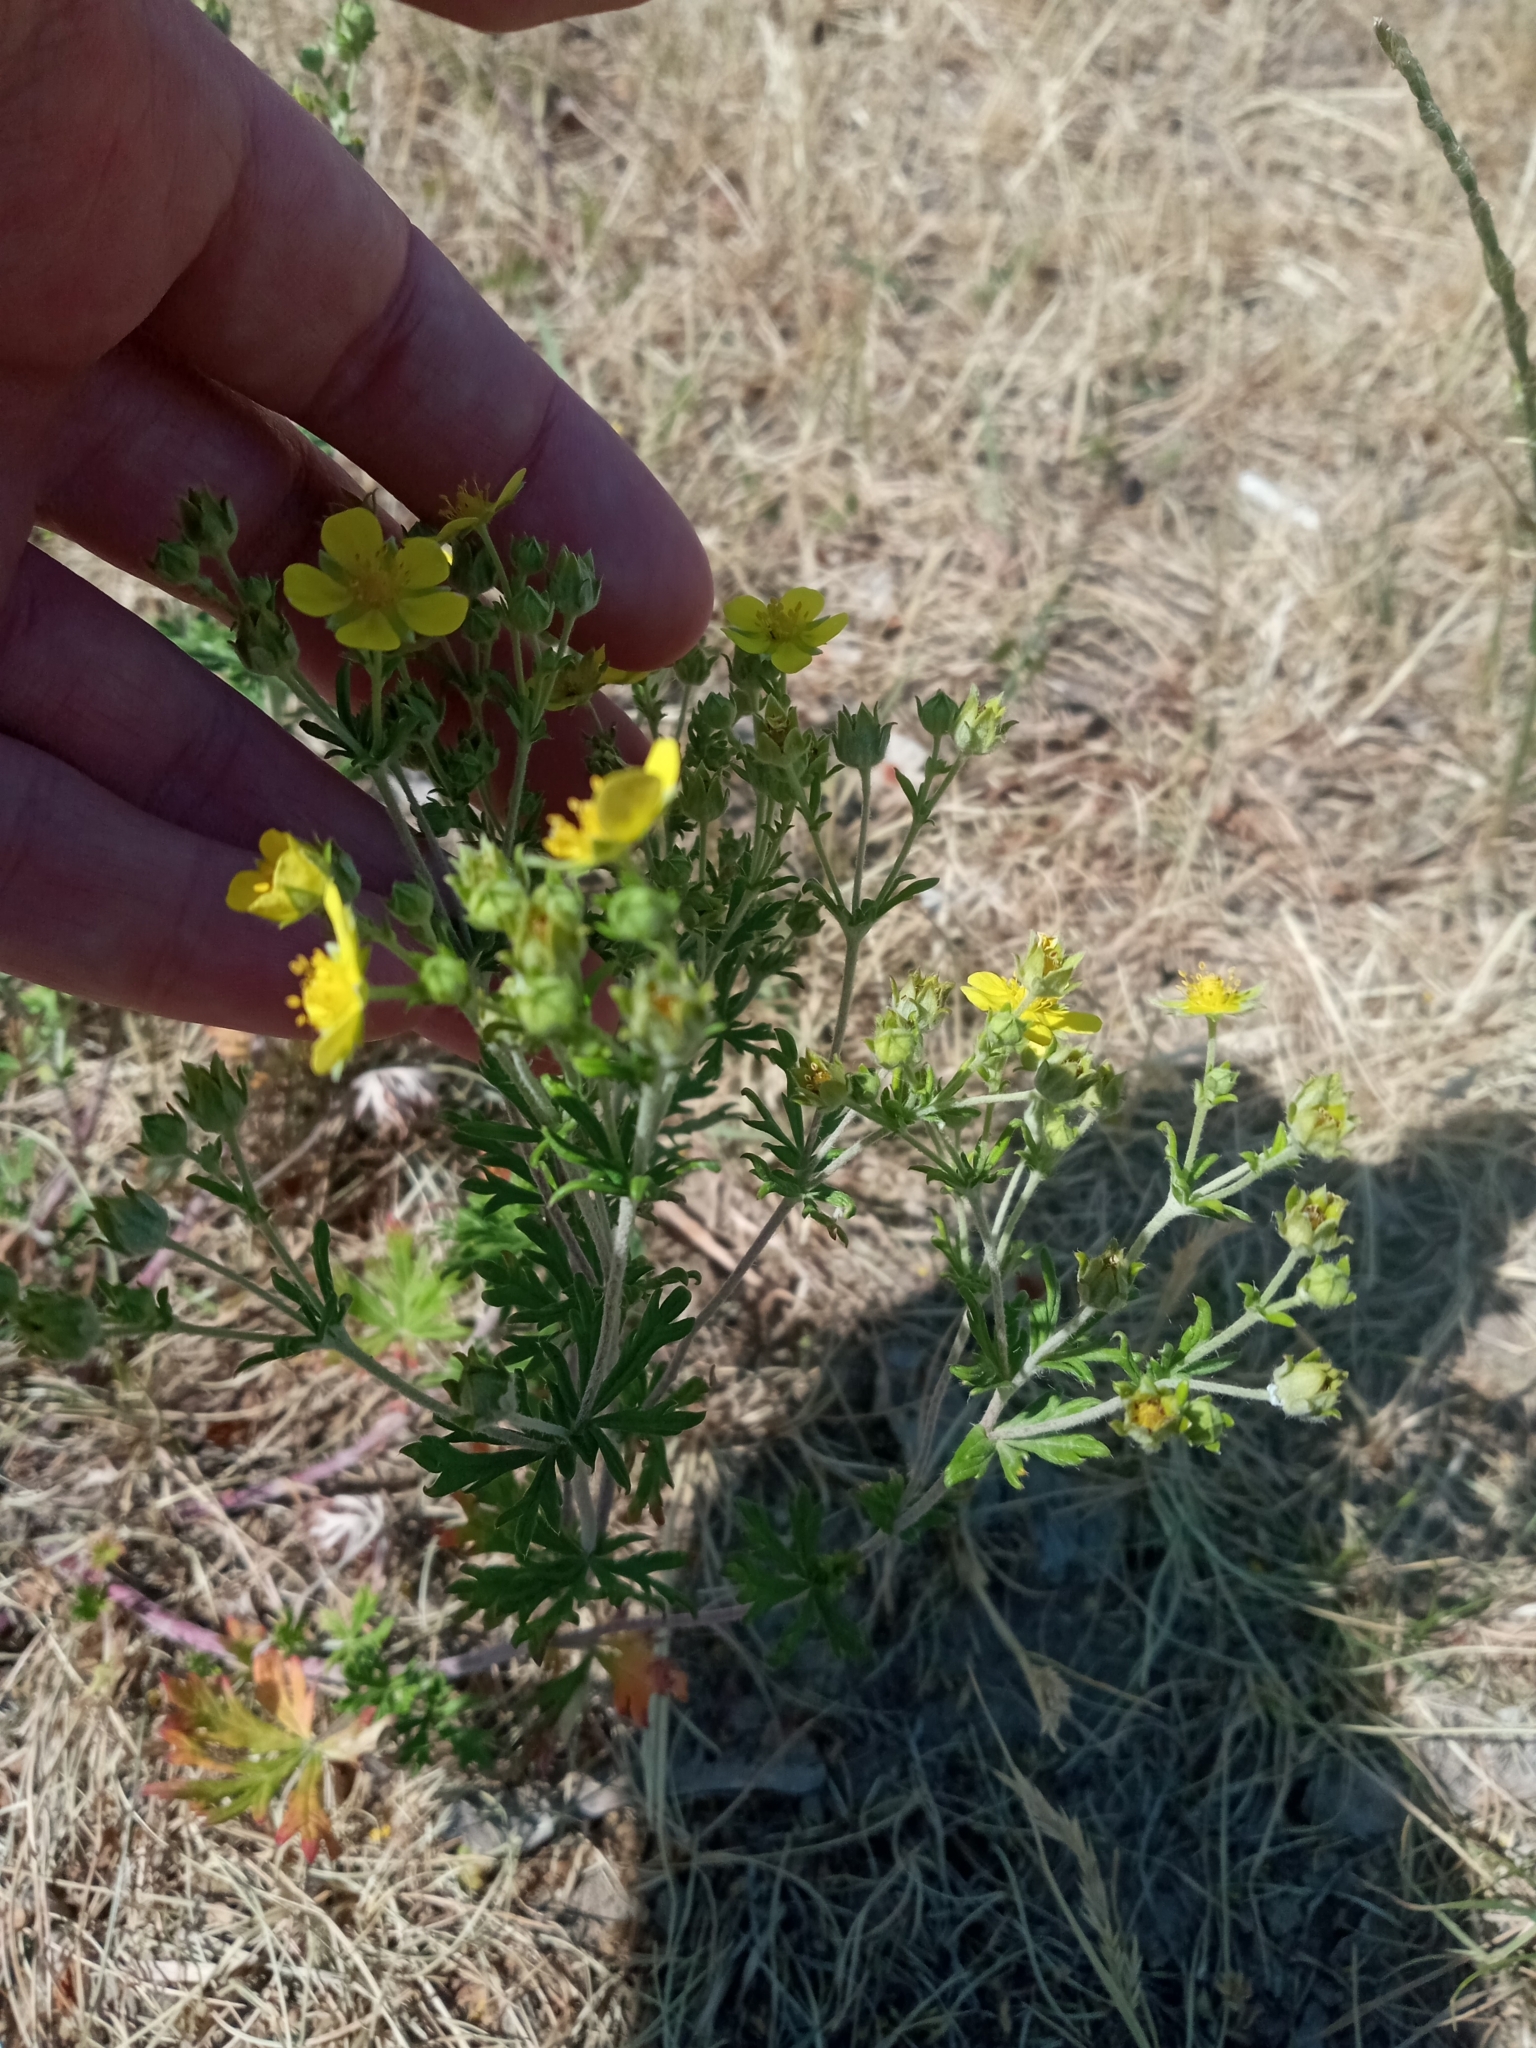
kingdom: Plantae
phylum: Tracheophyta
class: Magnoliopsida
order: Rosales
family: Rosaceae
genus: Potentilla
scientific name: Potentilla argentea
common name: Hoary cinquefoil
